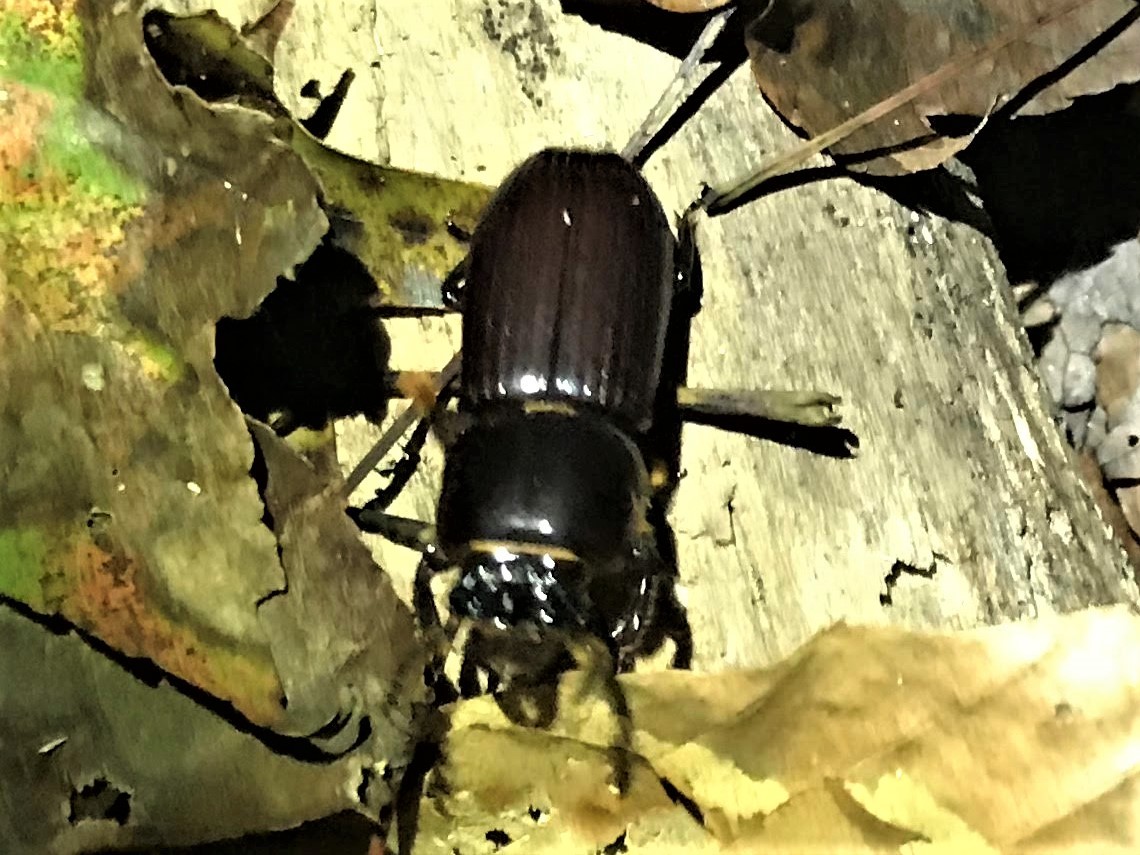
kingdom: Animalia
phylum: Arthropoda
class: Insecta
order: Coleoptera
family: Passalidae
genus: Odontotaenius
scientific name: Odontotaenius disjunctus
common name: Patent leather beetle
